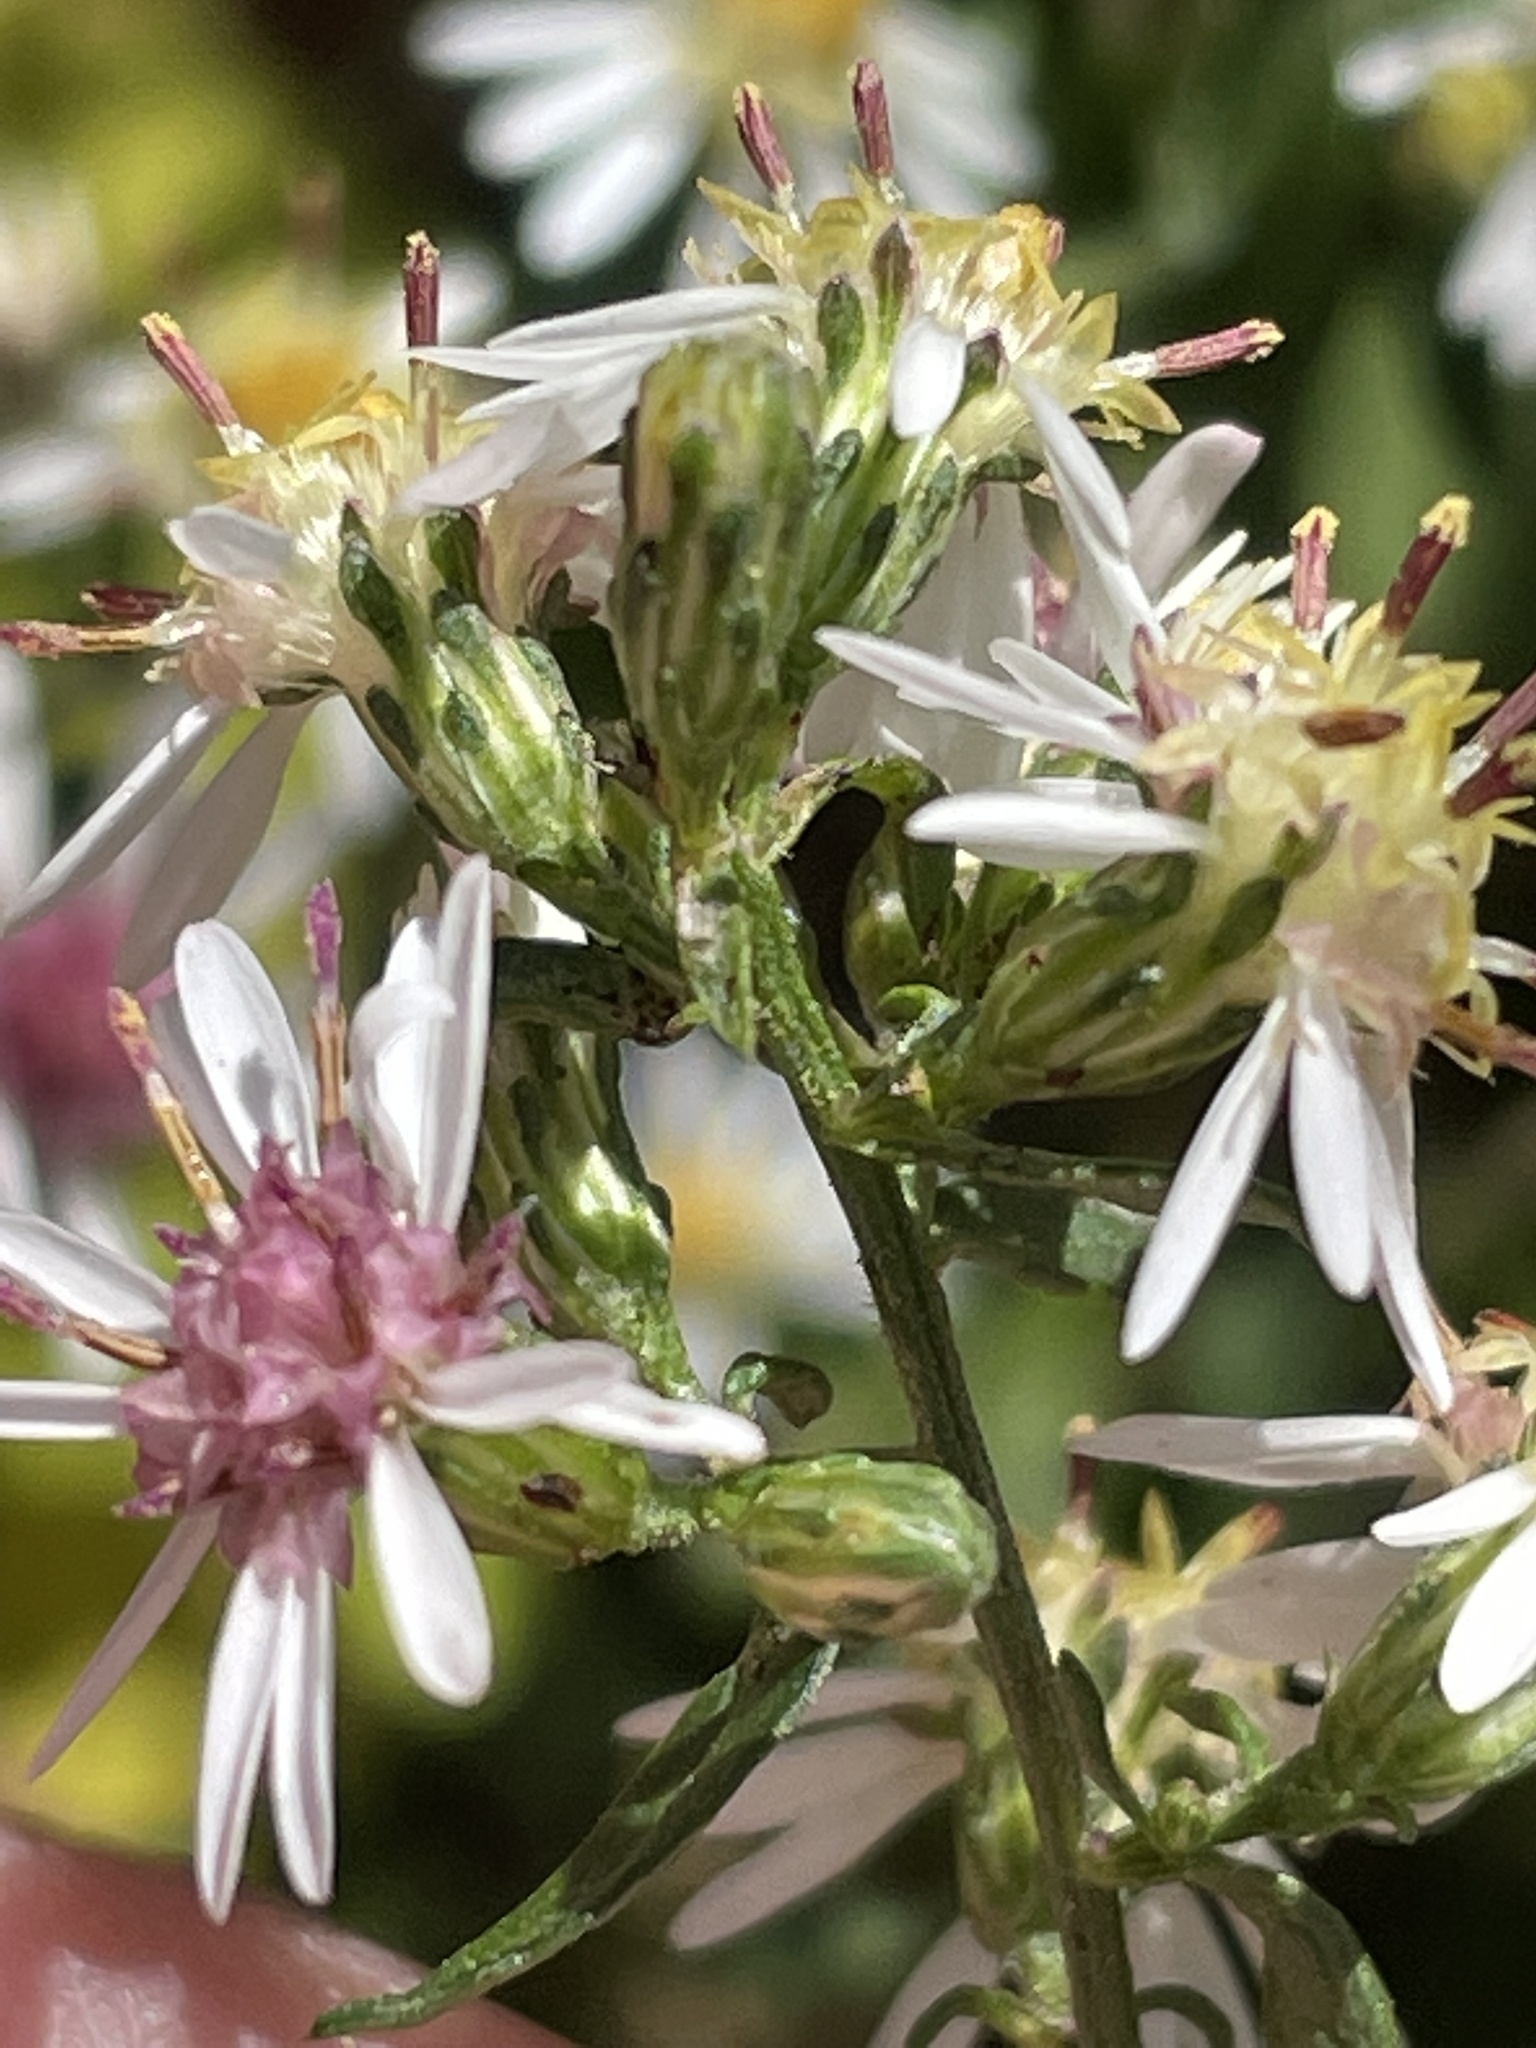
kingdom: Plantae
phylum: Tracheophyta
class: Magnoliopsida
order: Asterales
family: Asteraceae
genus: Symphyotrichum
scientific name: Symphyotrichum lateriflorum
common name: Calico aster
